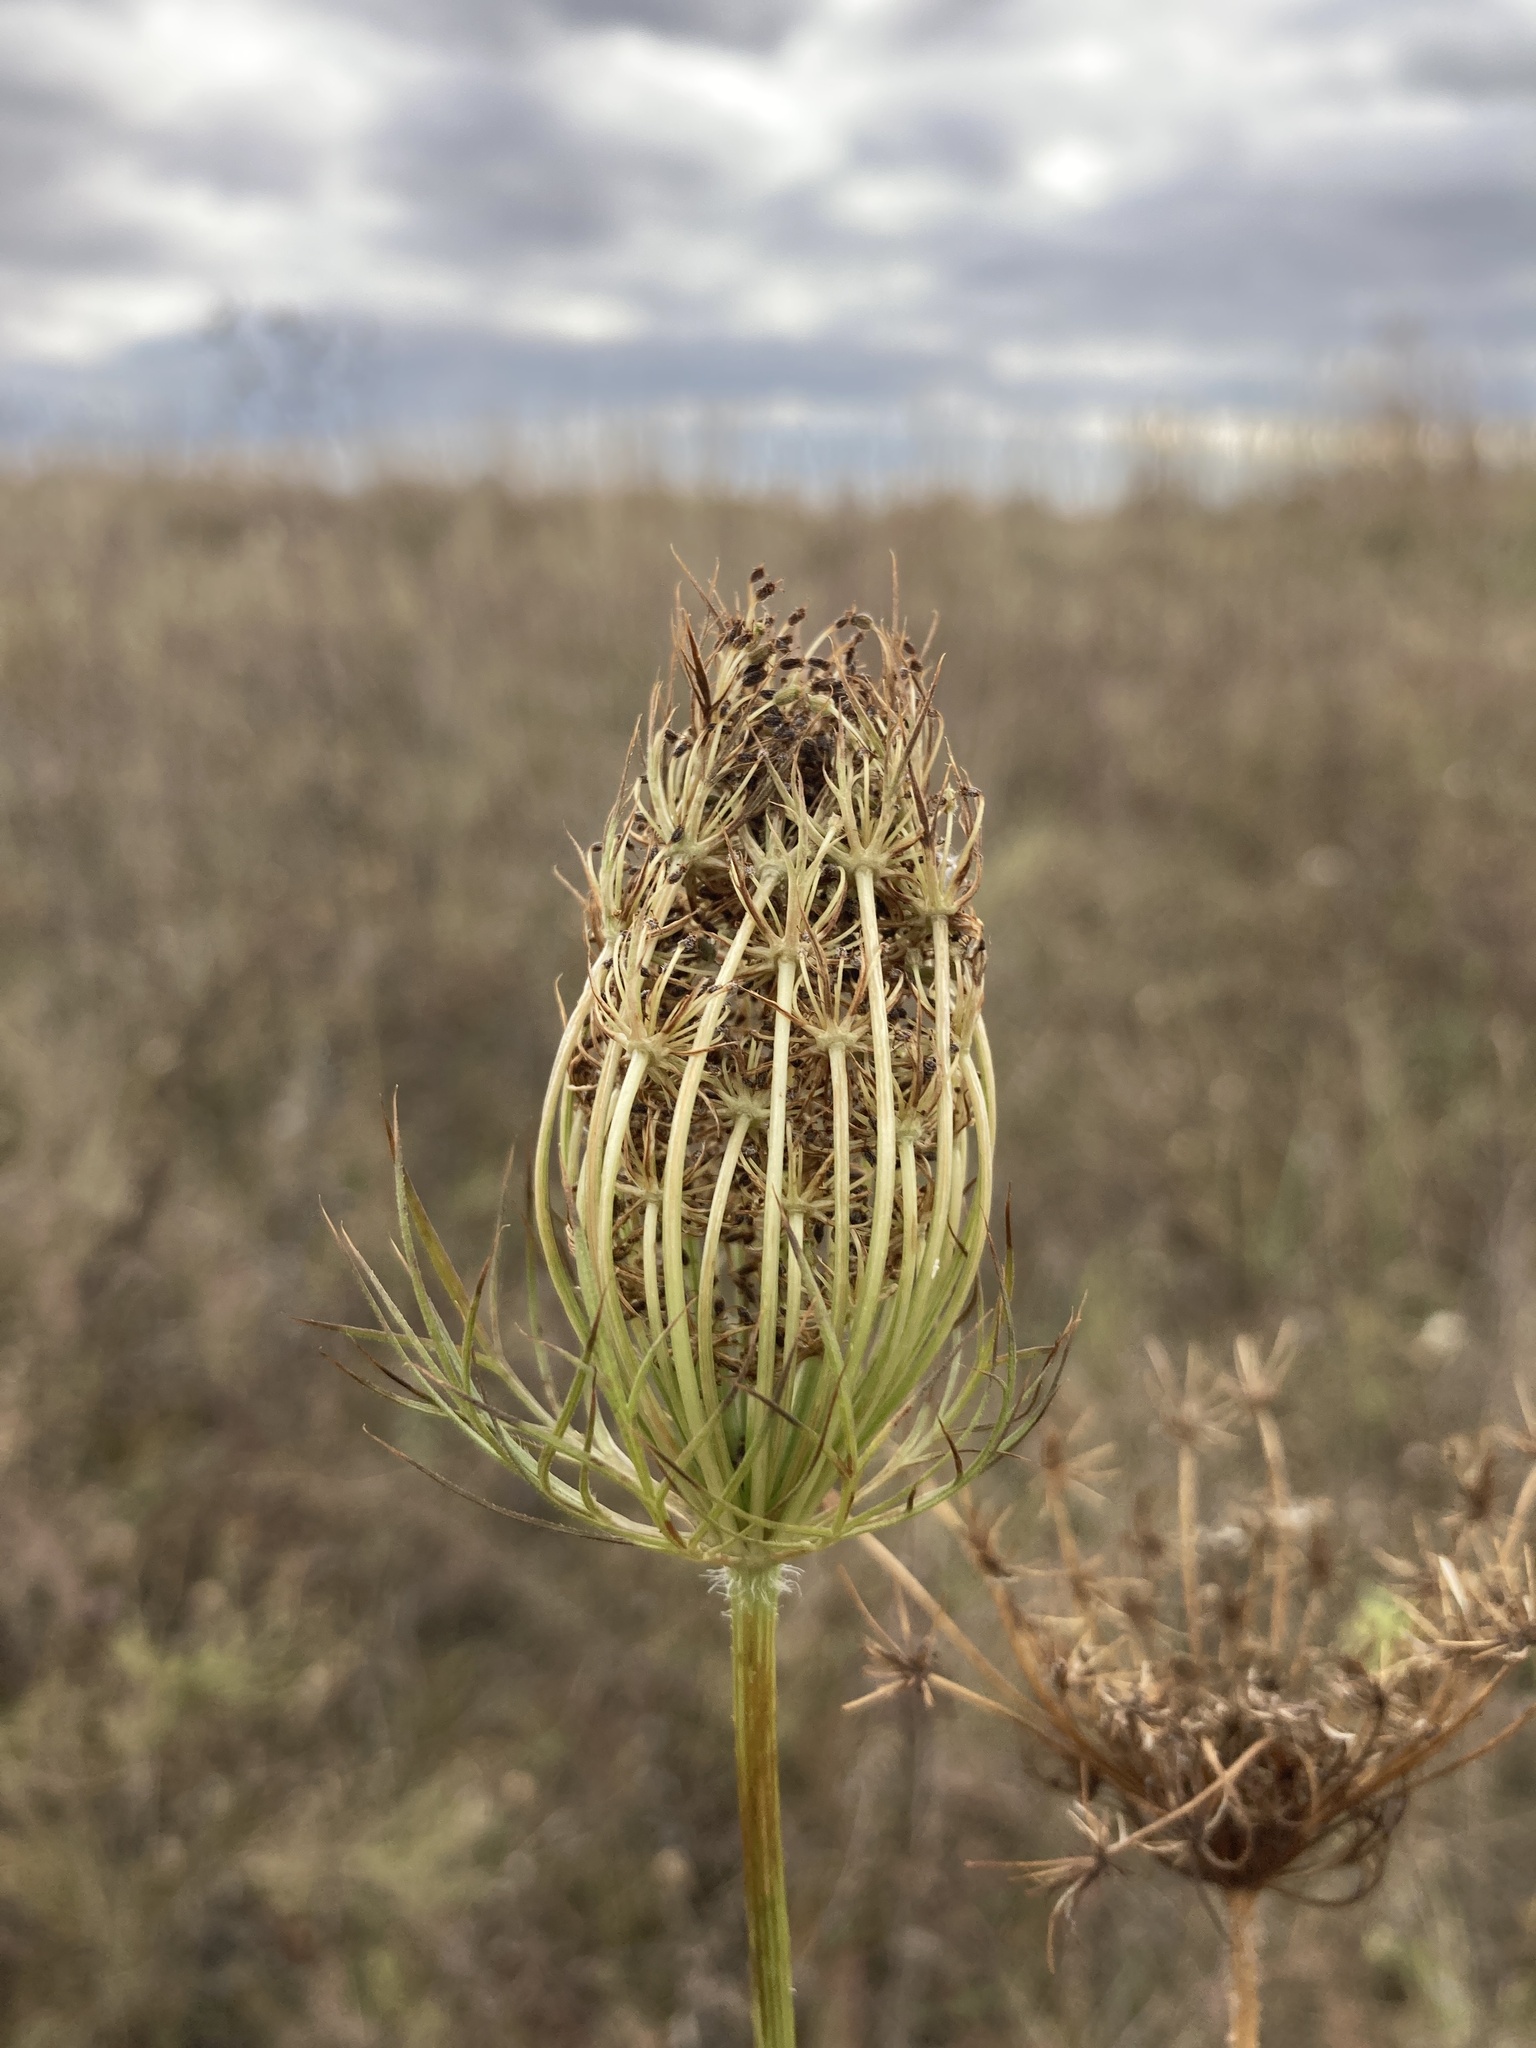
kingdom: Plantae
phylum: Tracheophyta
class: Magnoliopsida
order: Apiales
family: Apiaceae
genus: Daucus
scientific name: Daucus carota
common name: Wild carrot
